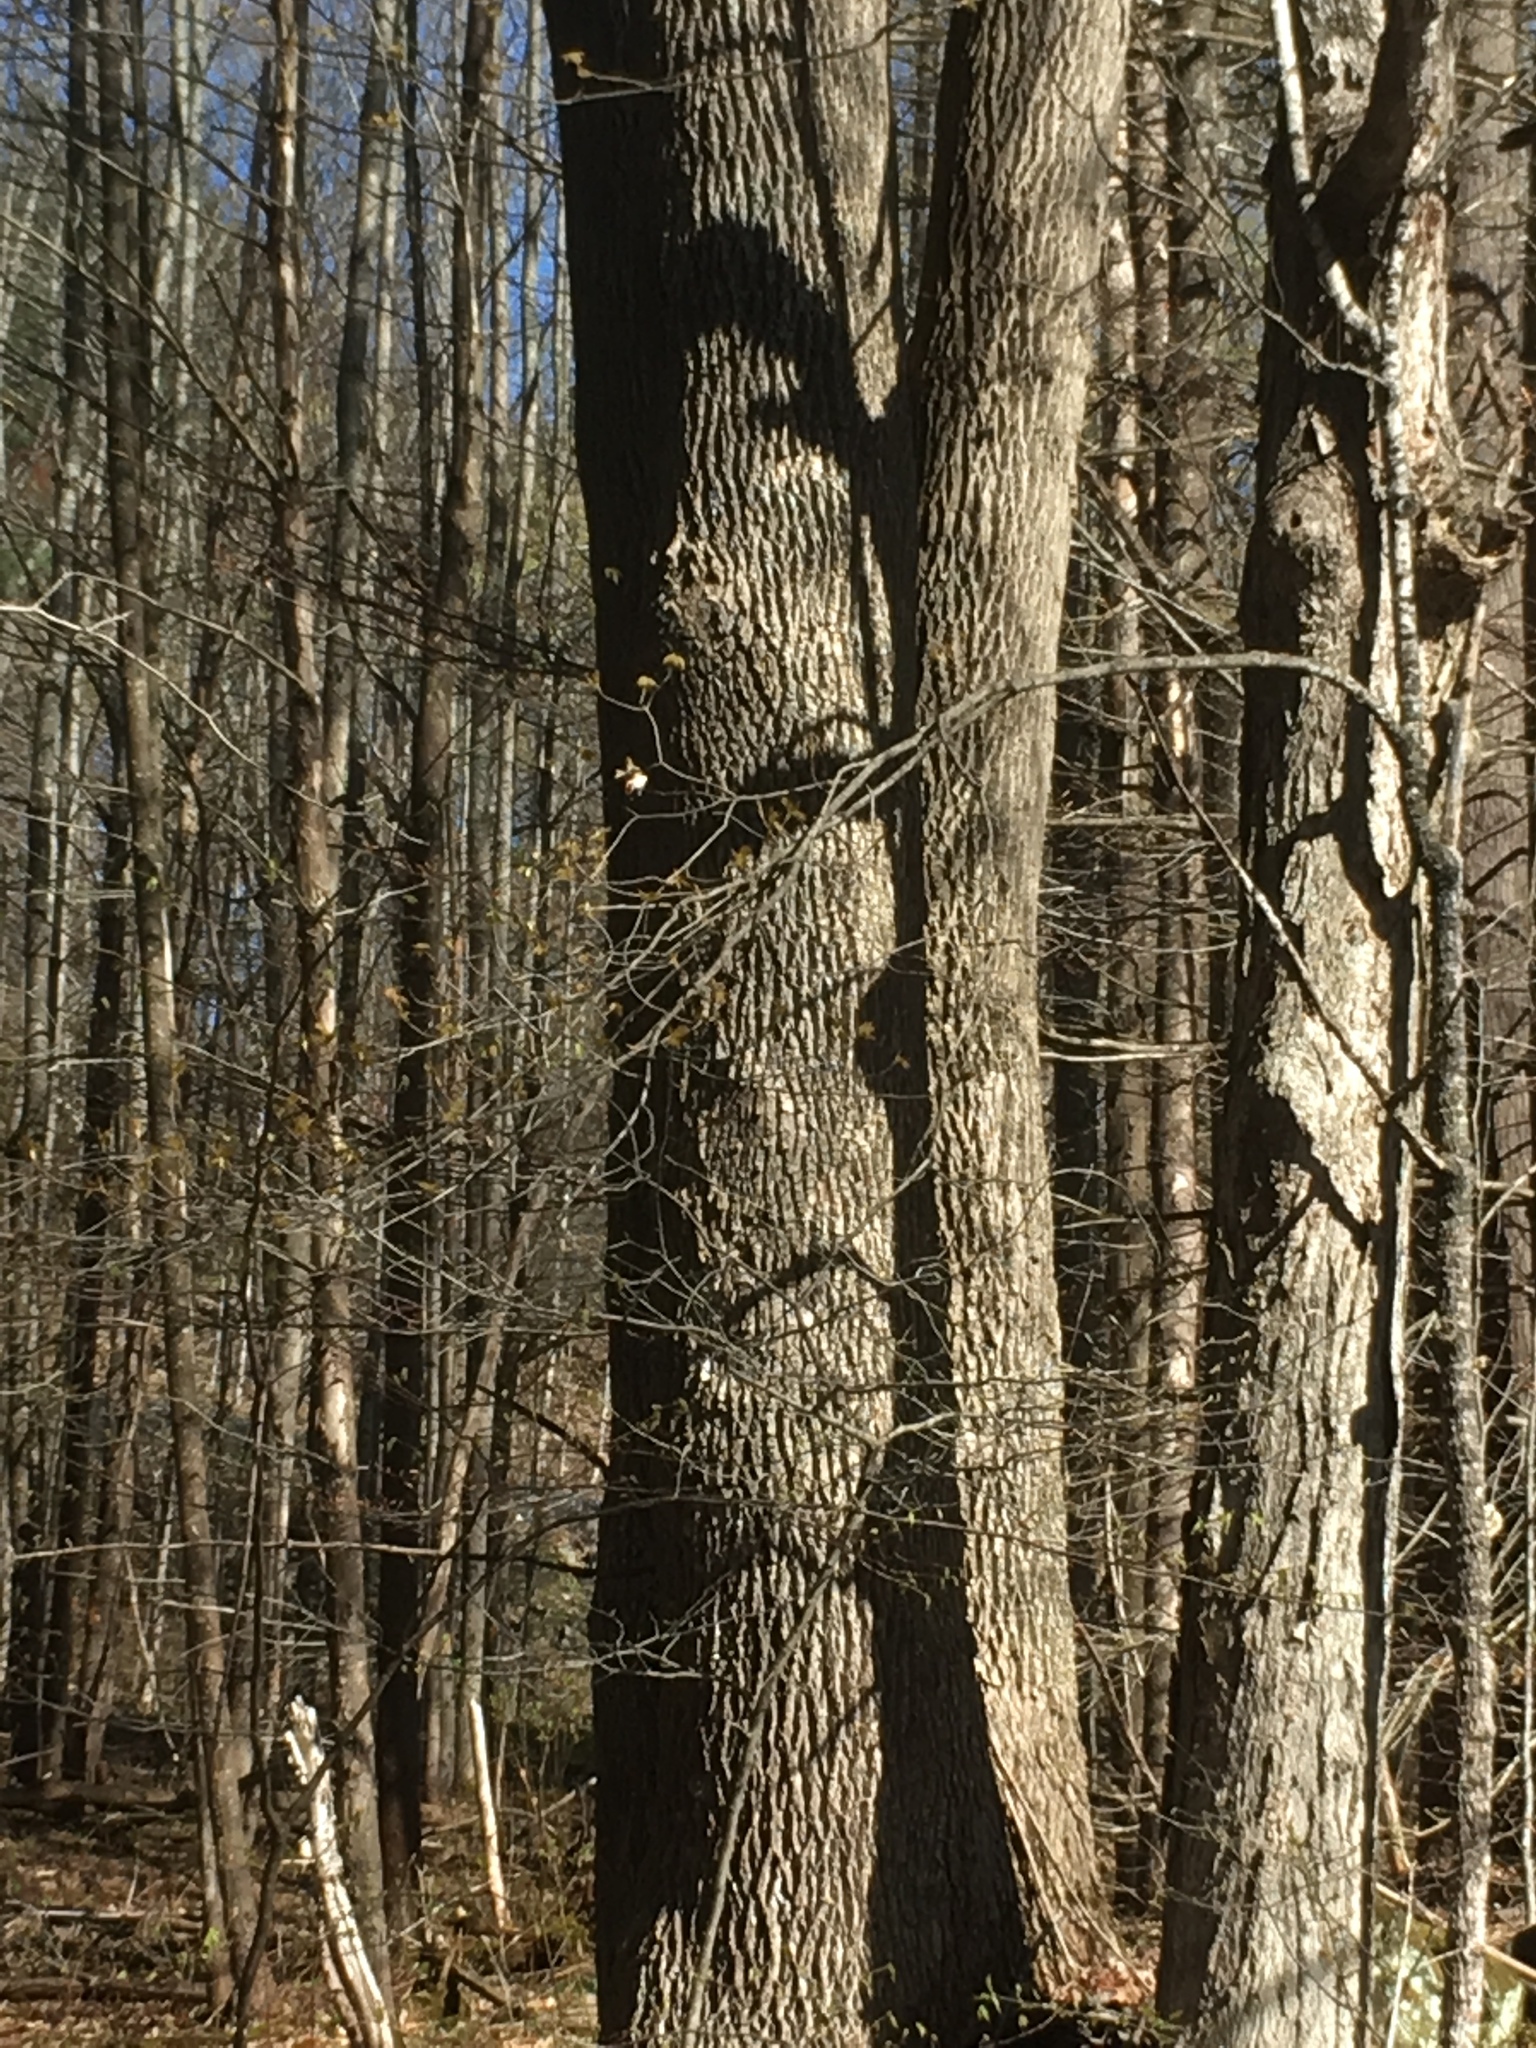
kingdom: Plantae
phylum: Tracheophyta
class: Magnoliopsida
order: Lamiales
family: Oleaceae
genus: Fraxinus
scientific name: Fraxinus americana
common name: White ash
